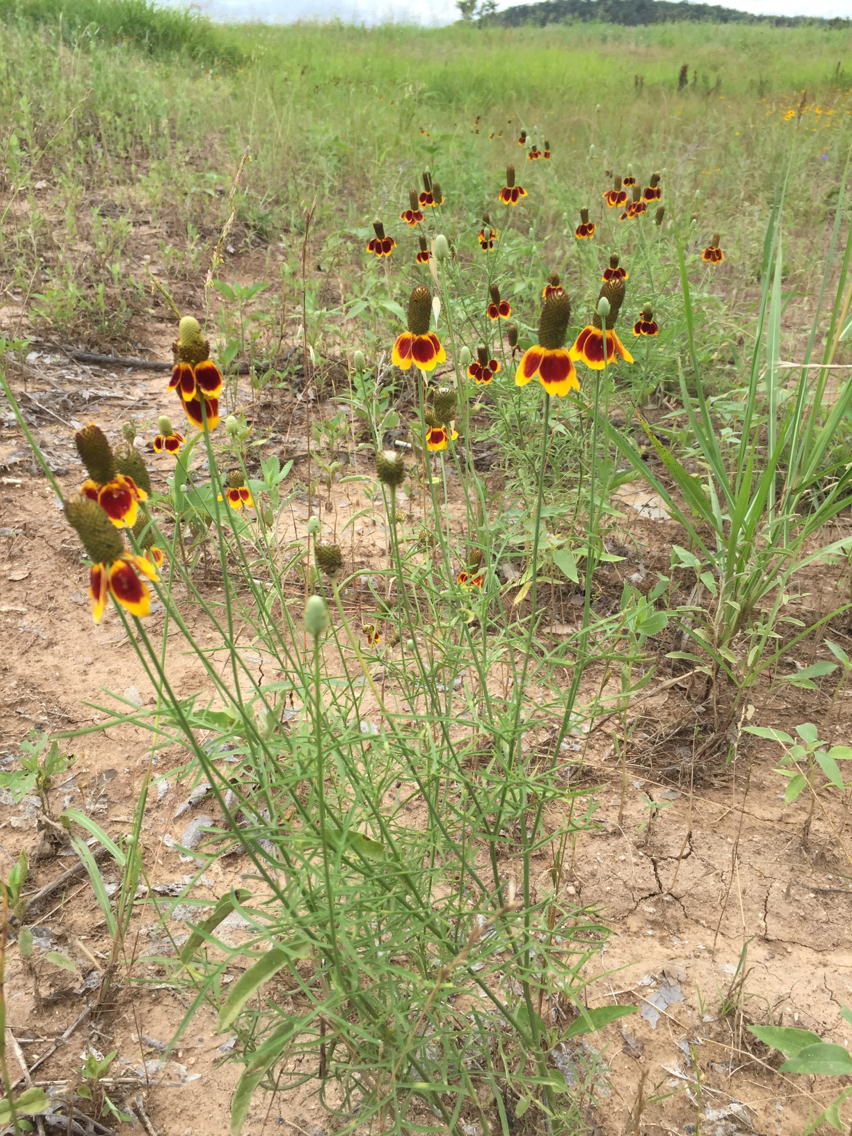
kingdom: Plantae
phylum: Tracheophyta
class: Magnoliopsida
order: Asterales
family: Asteraceae
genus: Ratibida
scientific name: Ratibida columnifera
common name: Prairie coneflower
